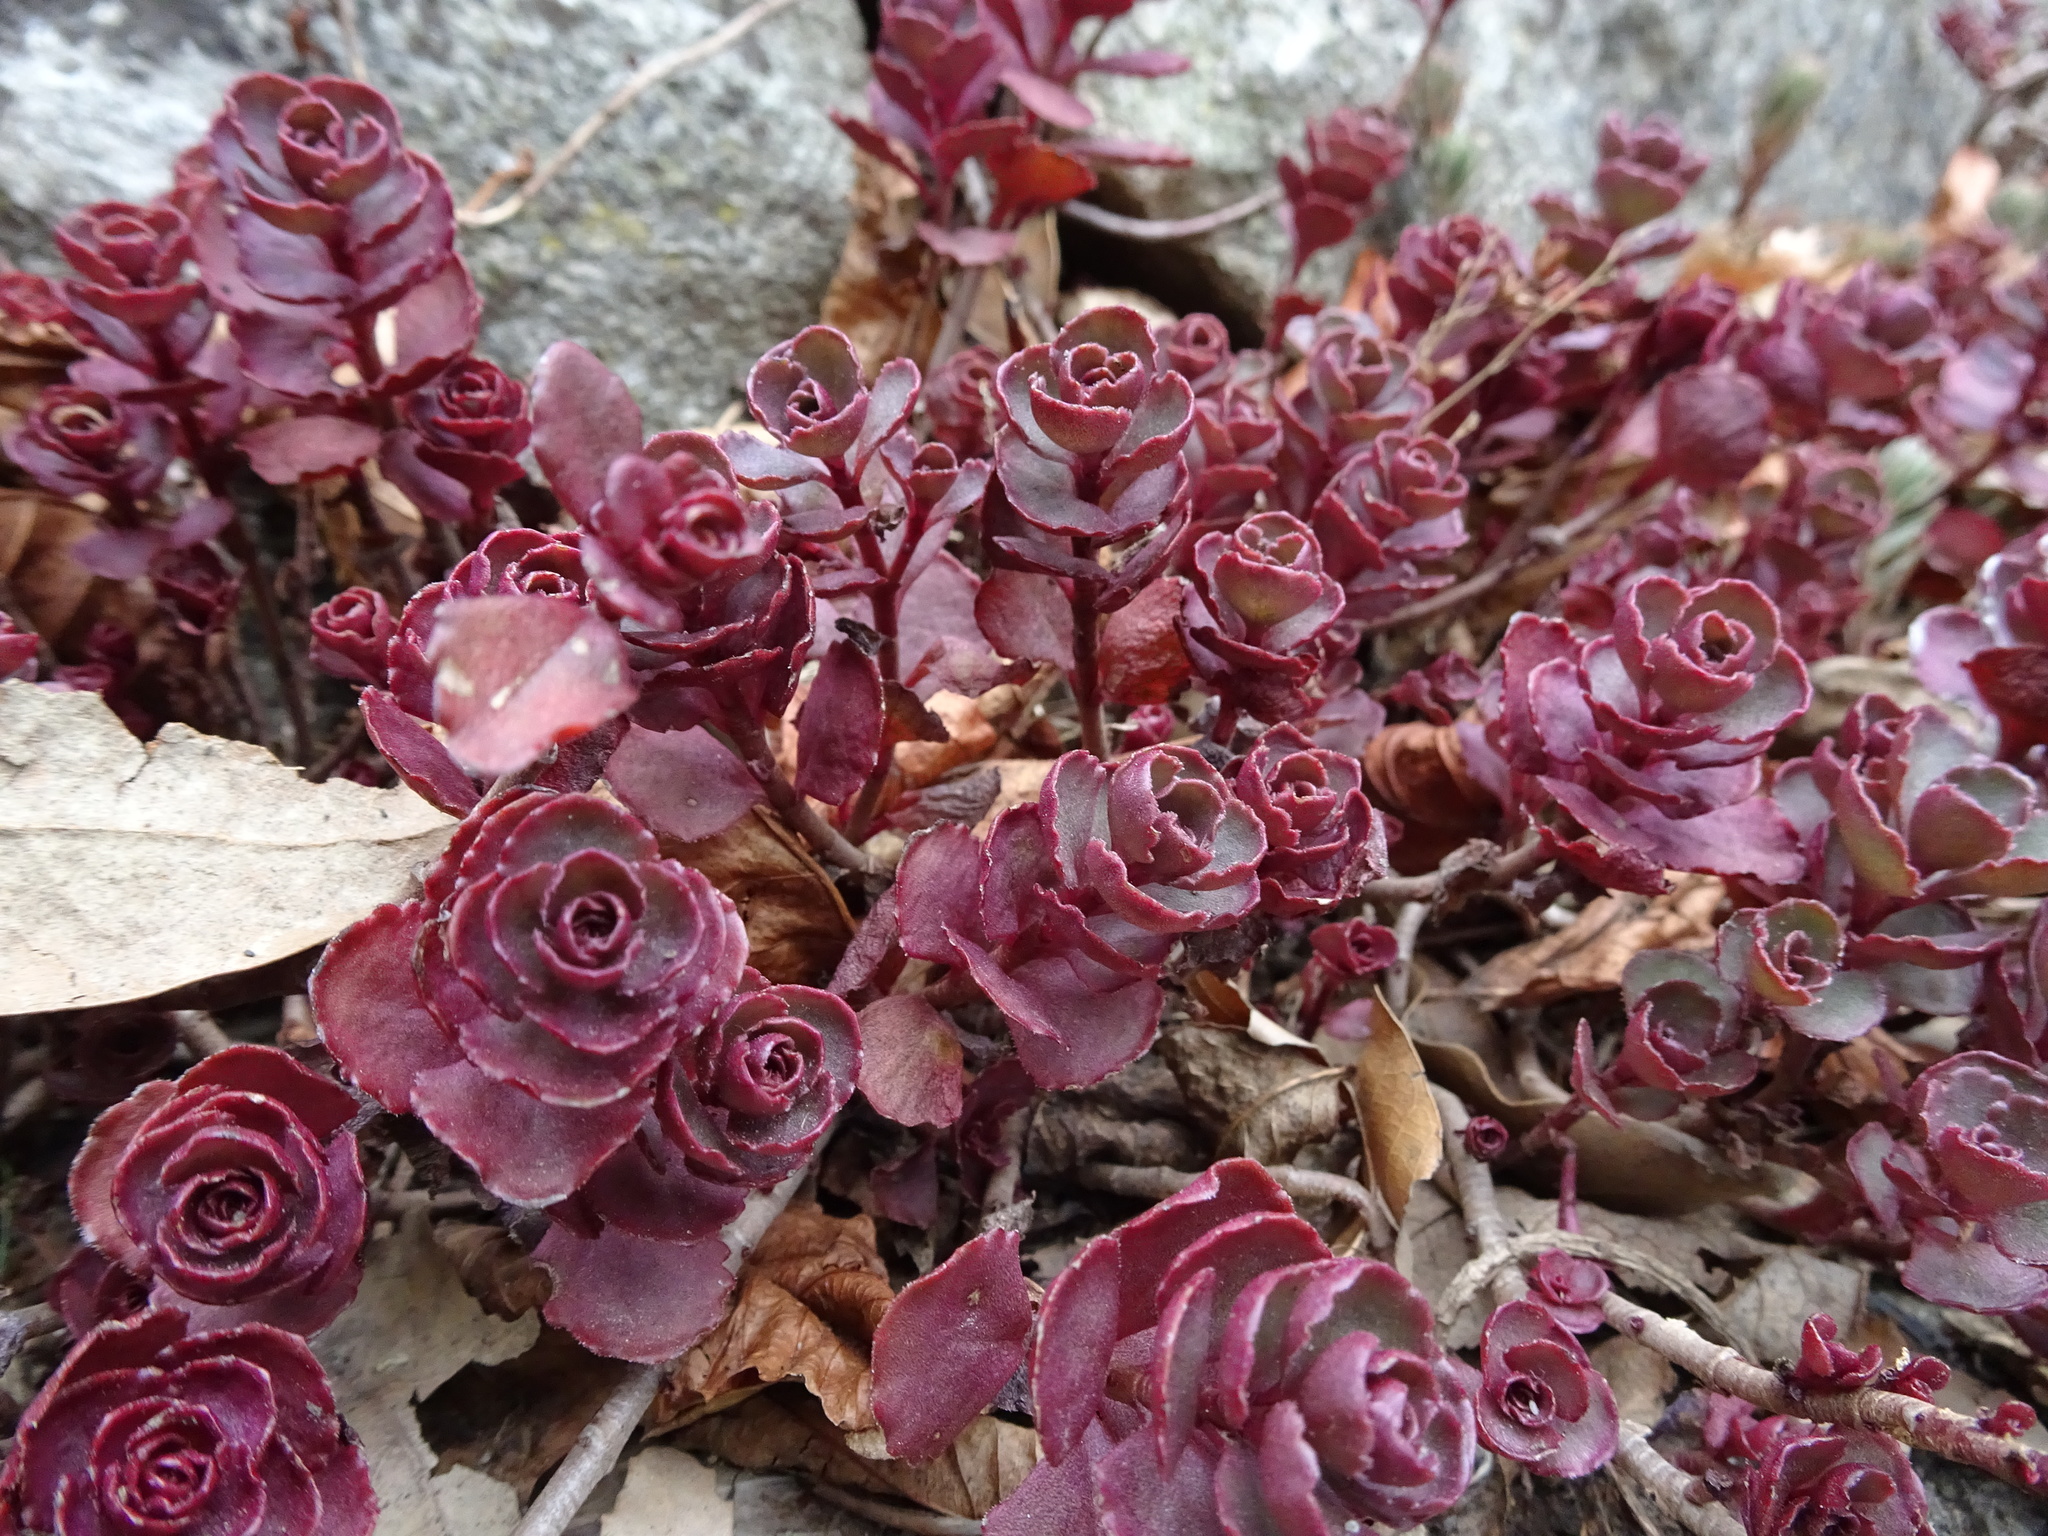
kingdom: Plantae
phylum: Tracheophyta
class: Magnoliopsida
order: Saxifragales
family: Crassulaceae
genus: Phedimus
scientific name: Phedimus spurius
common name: Caucasian stonecrop
